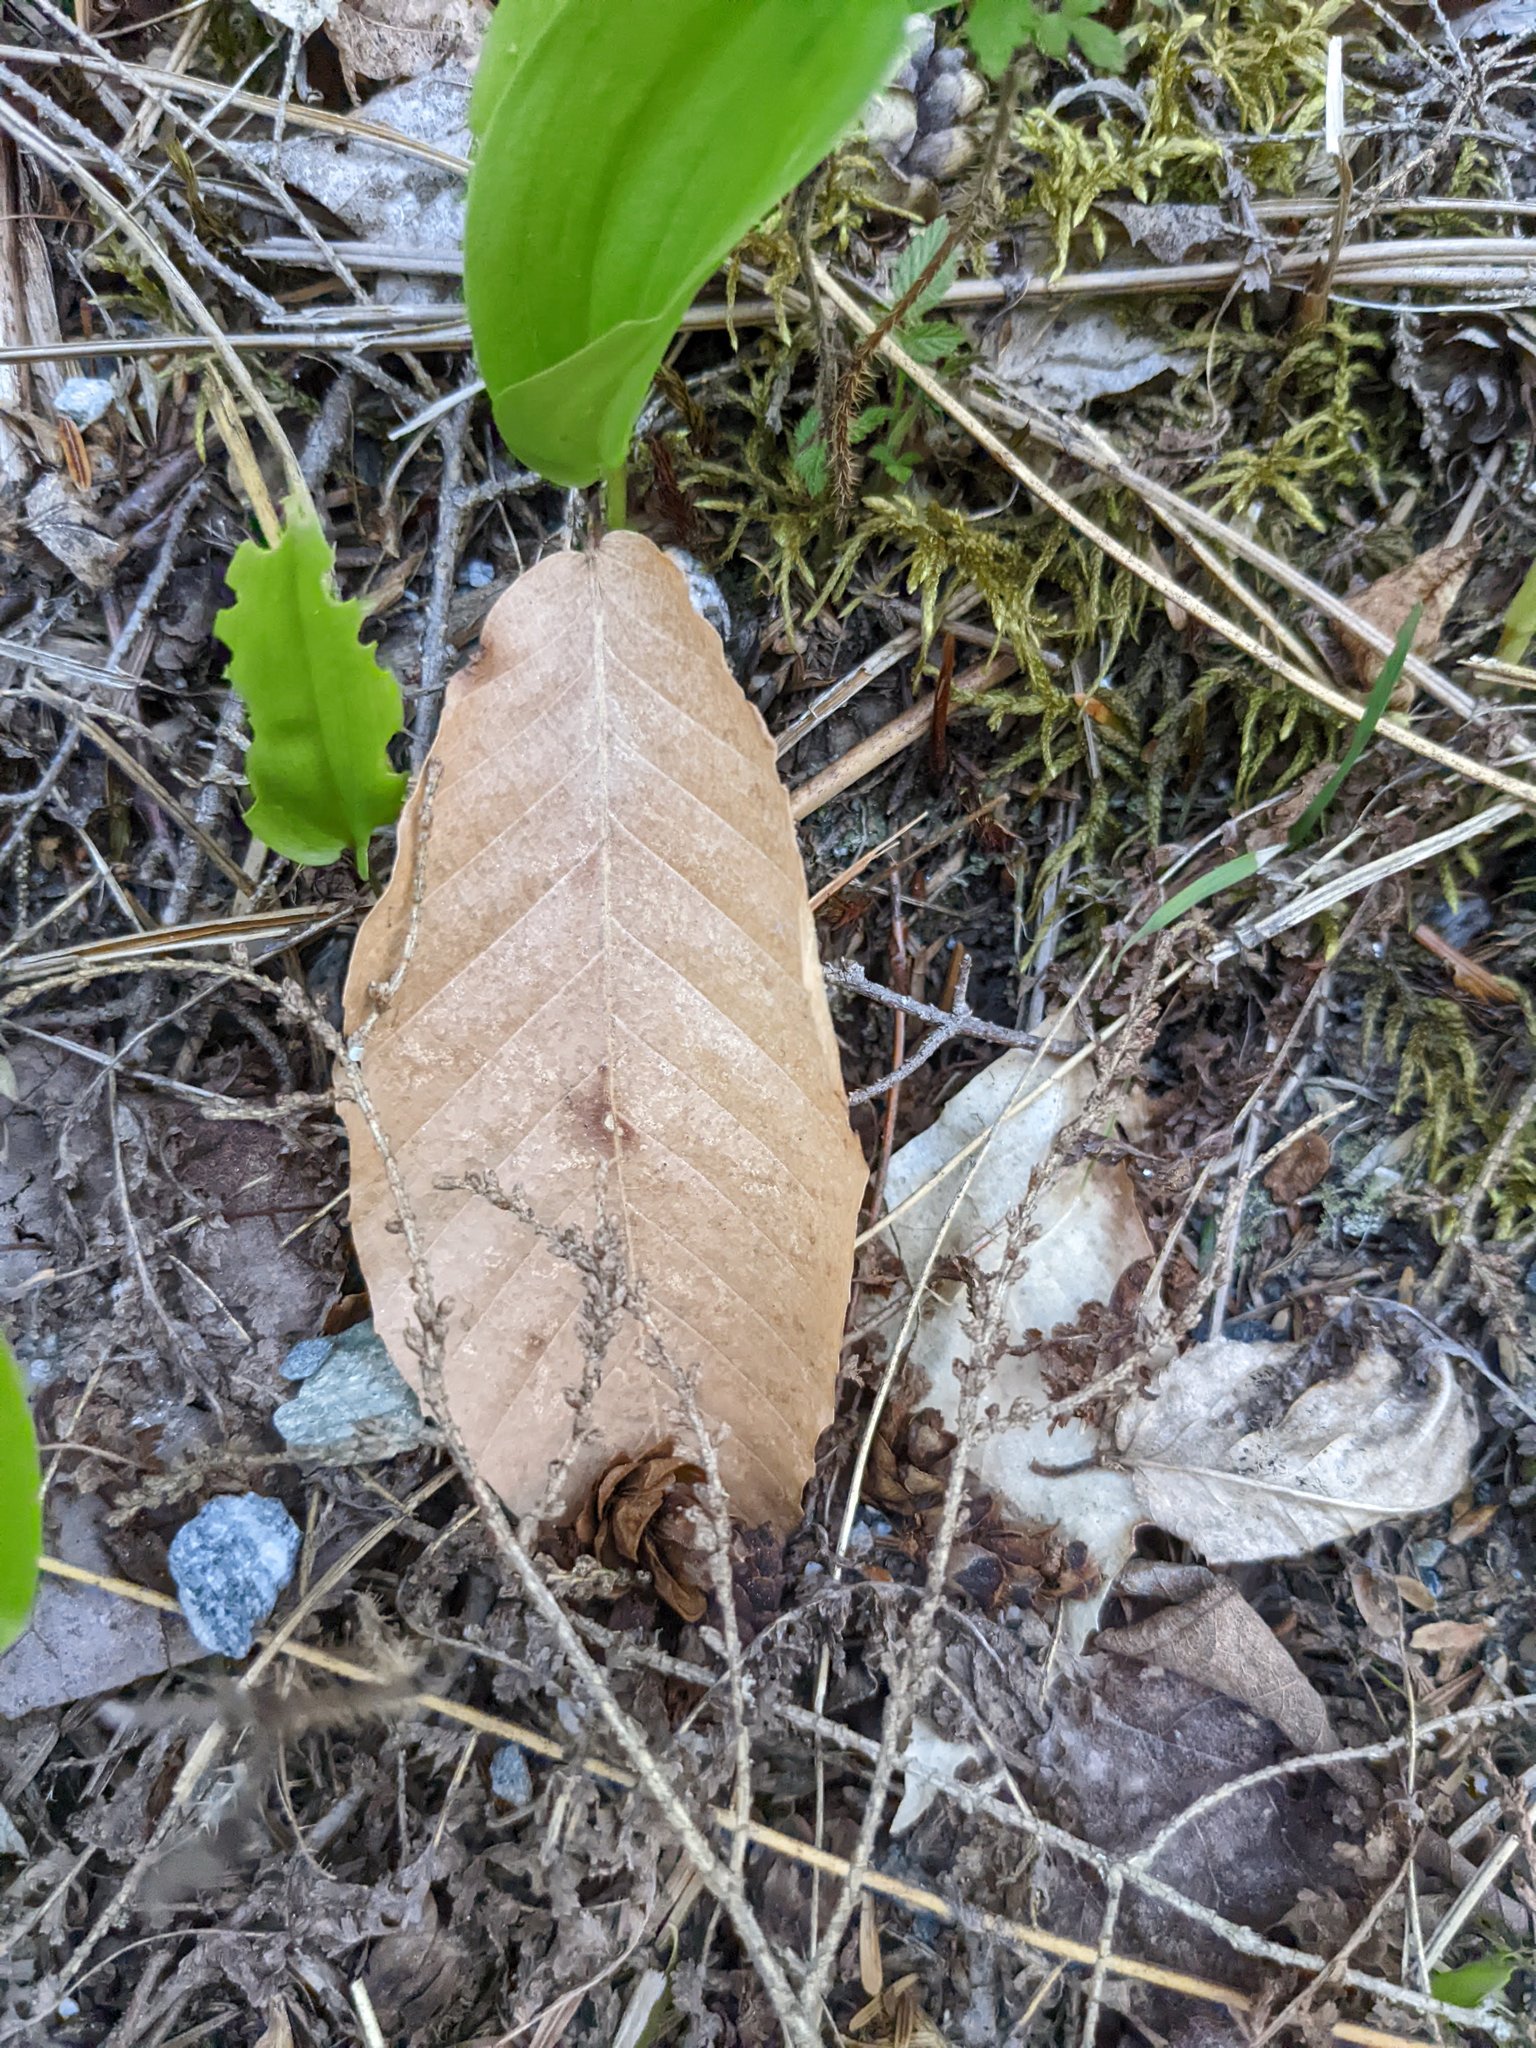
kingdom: Plantae
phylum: Tracheophyta
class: Magnoliopsida
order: Fagales
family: Fagaceae
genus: Fagus
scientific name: Fagus grandifolia
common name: American beech
